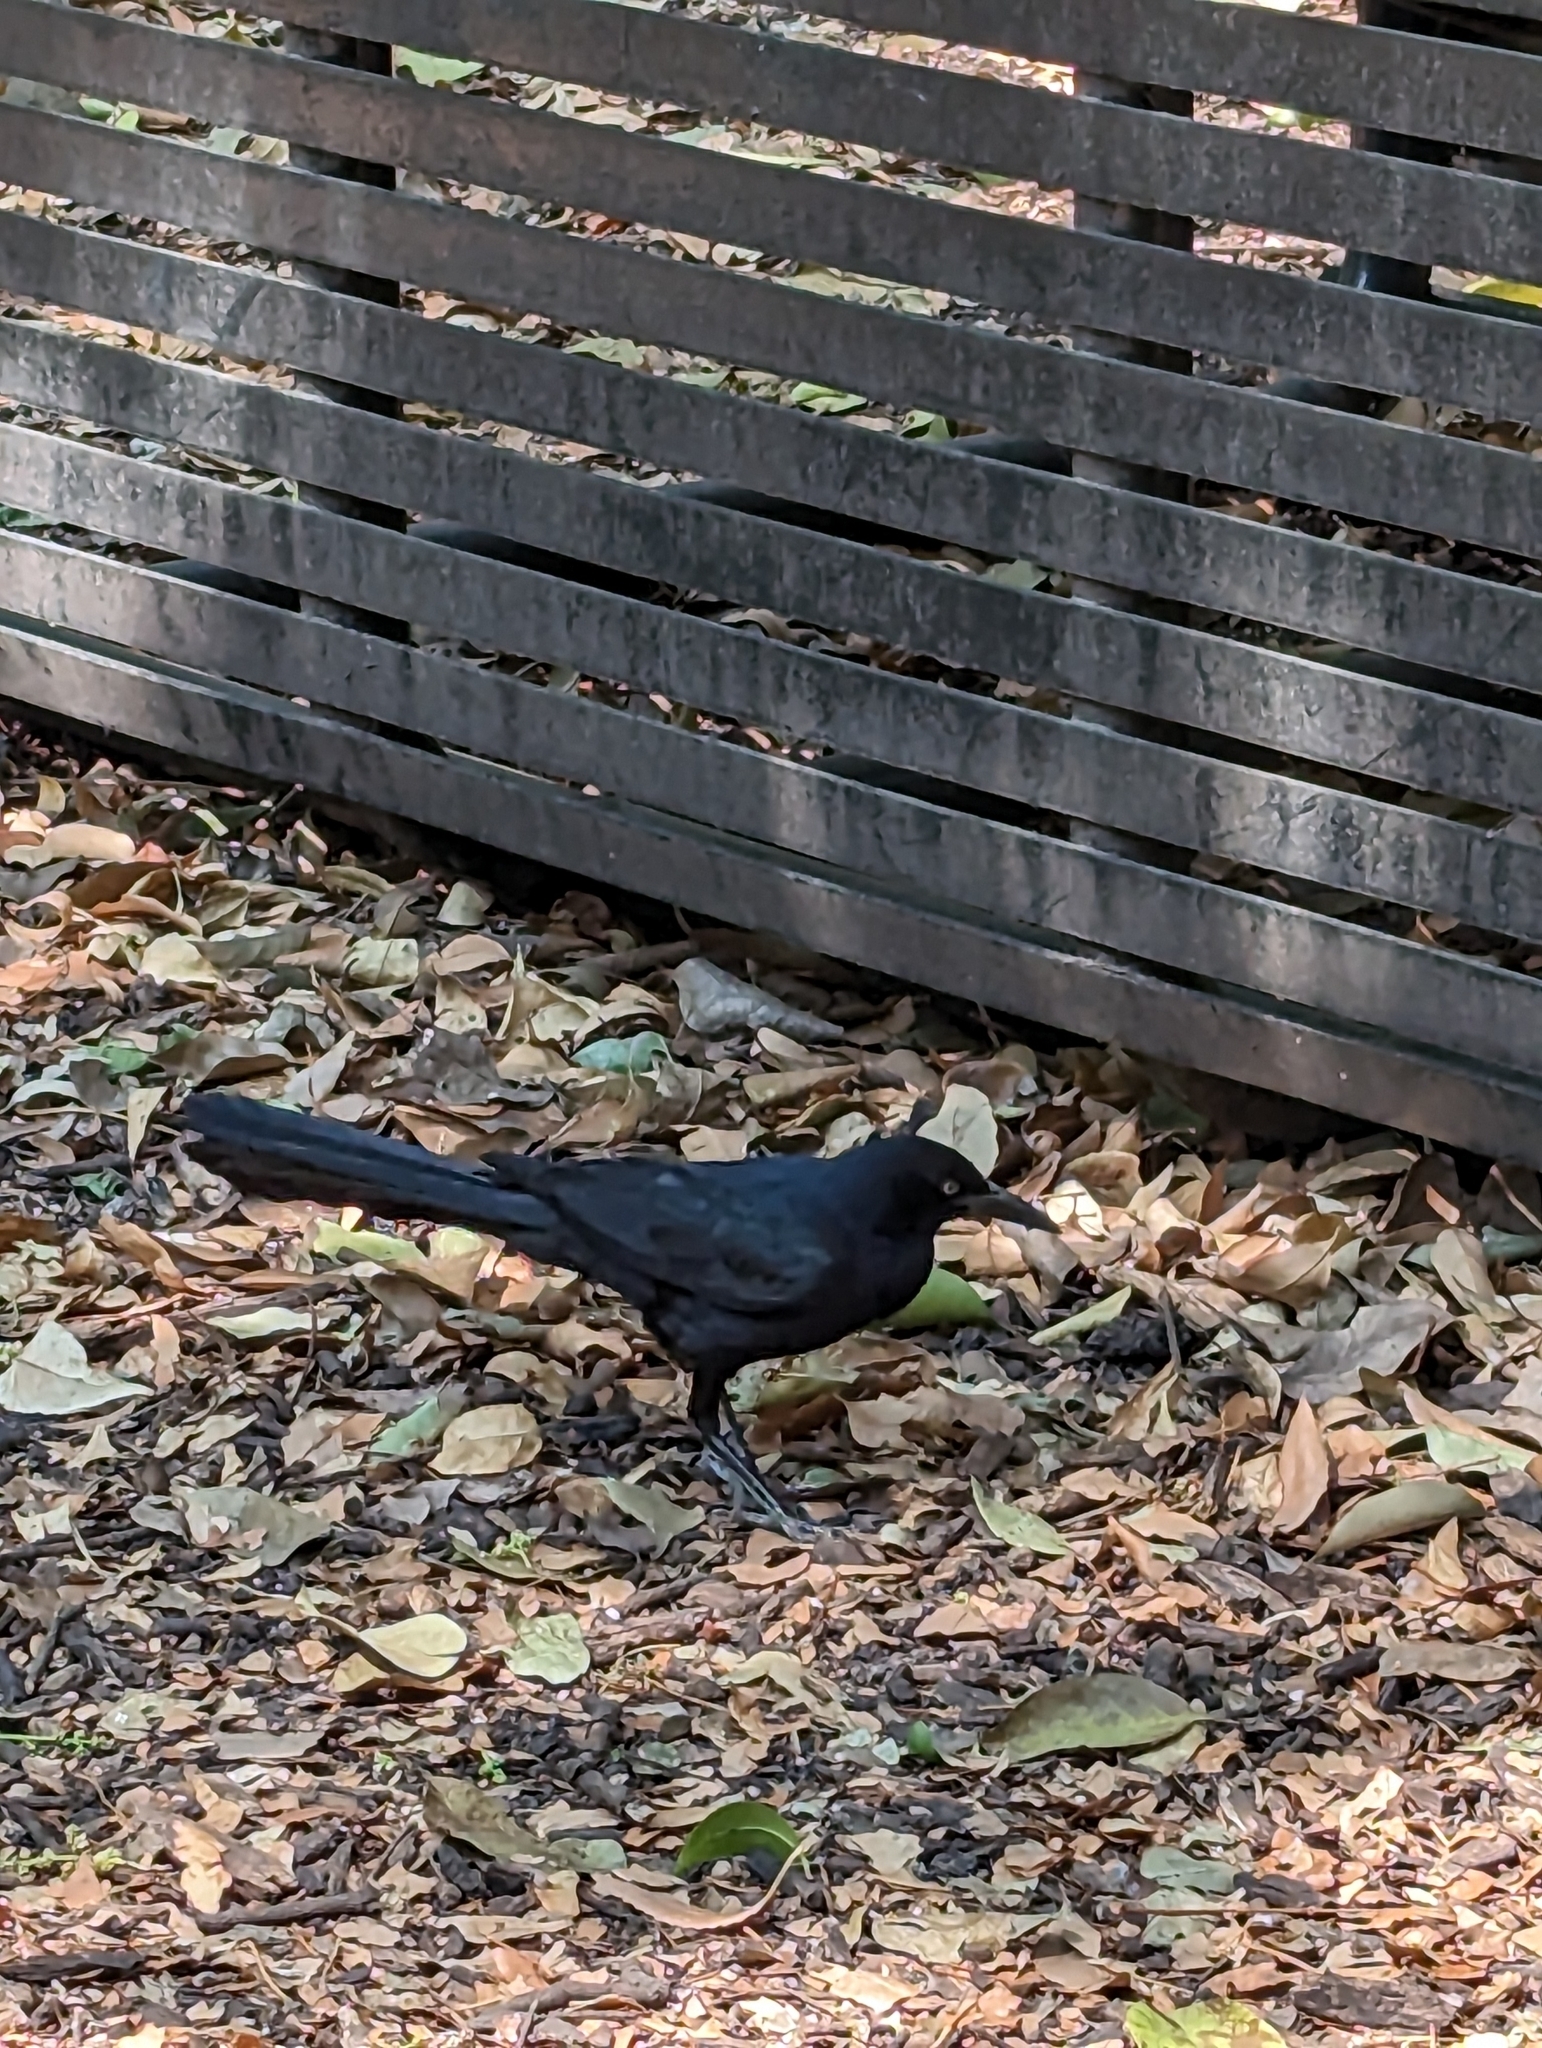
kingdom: Animalia
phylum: Chordata
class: Aves
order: Passeriformes
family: Icteridae
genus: Quiscalus
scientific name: Quiscalus mexicanus
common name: Great-tailed grackle
